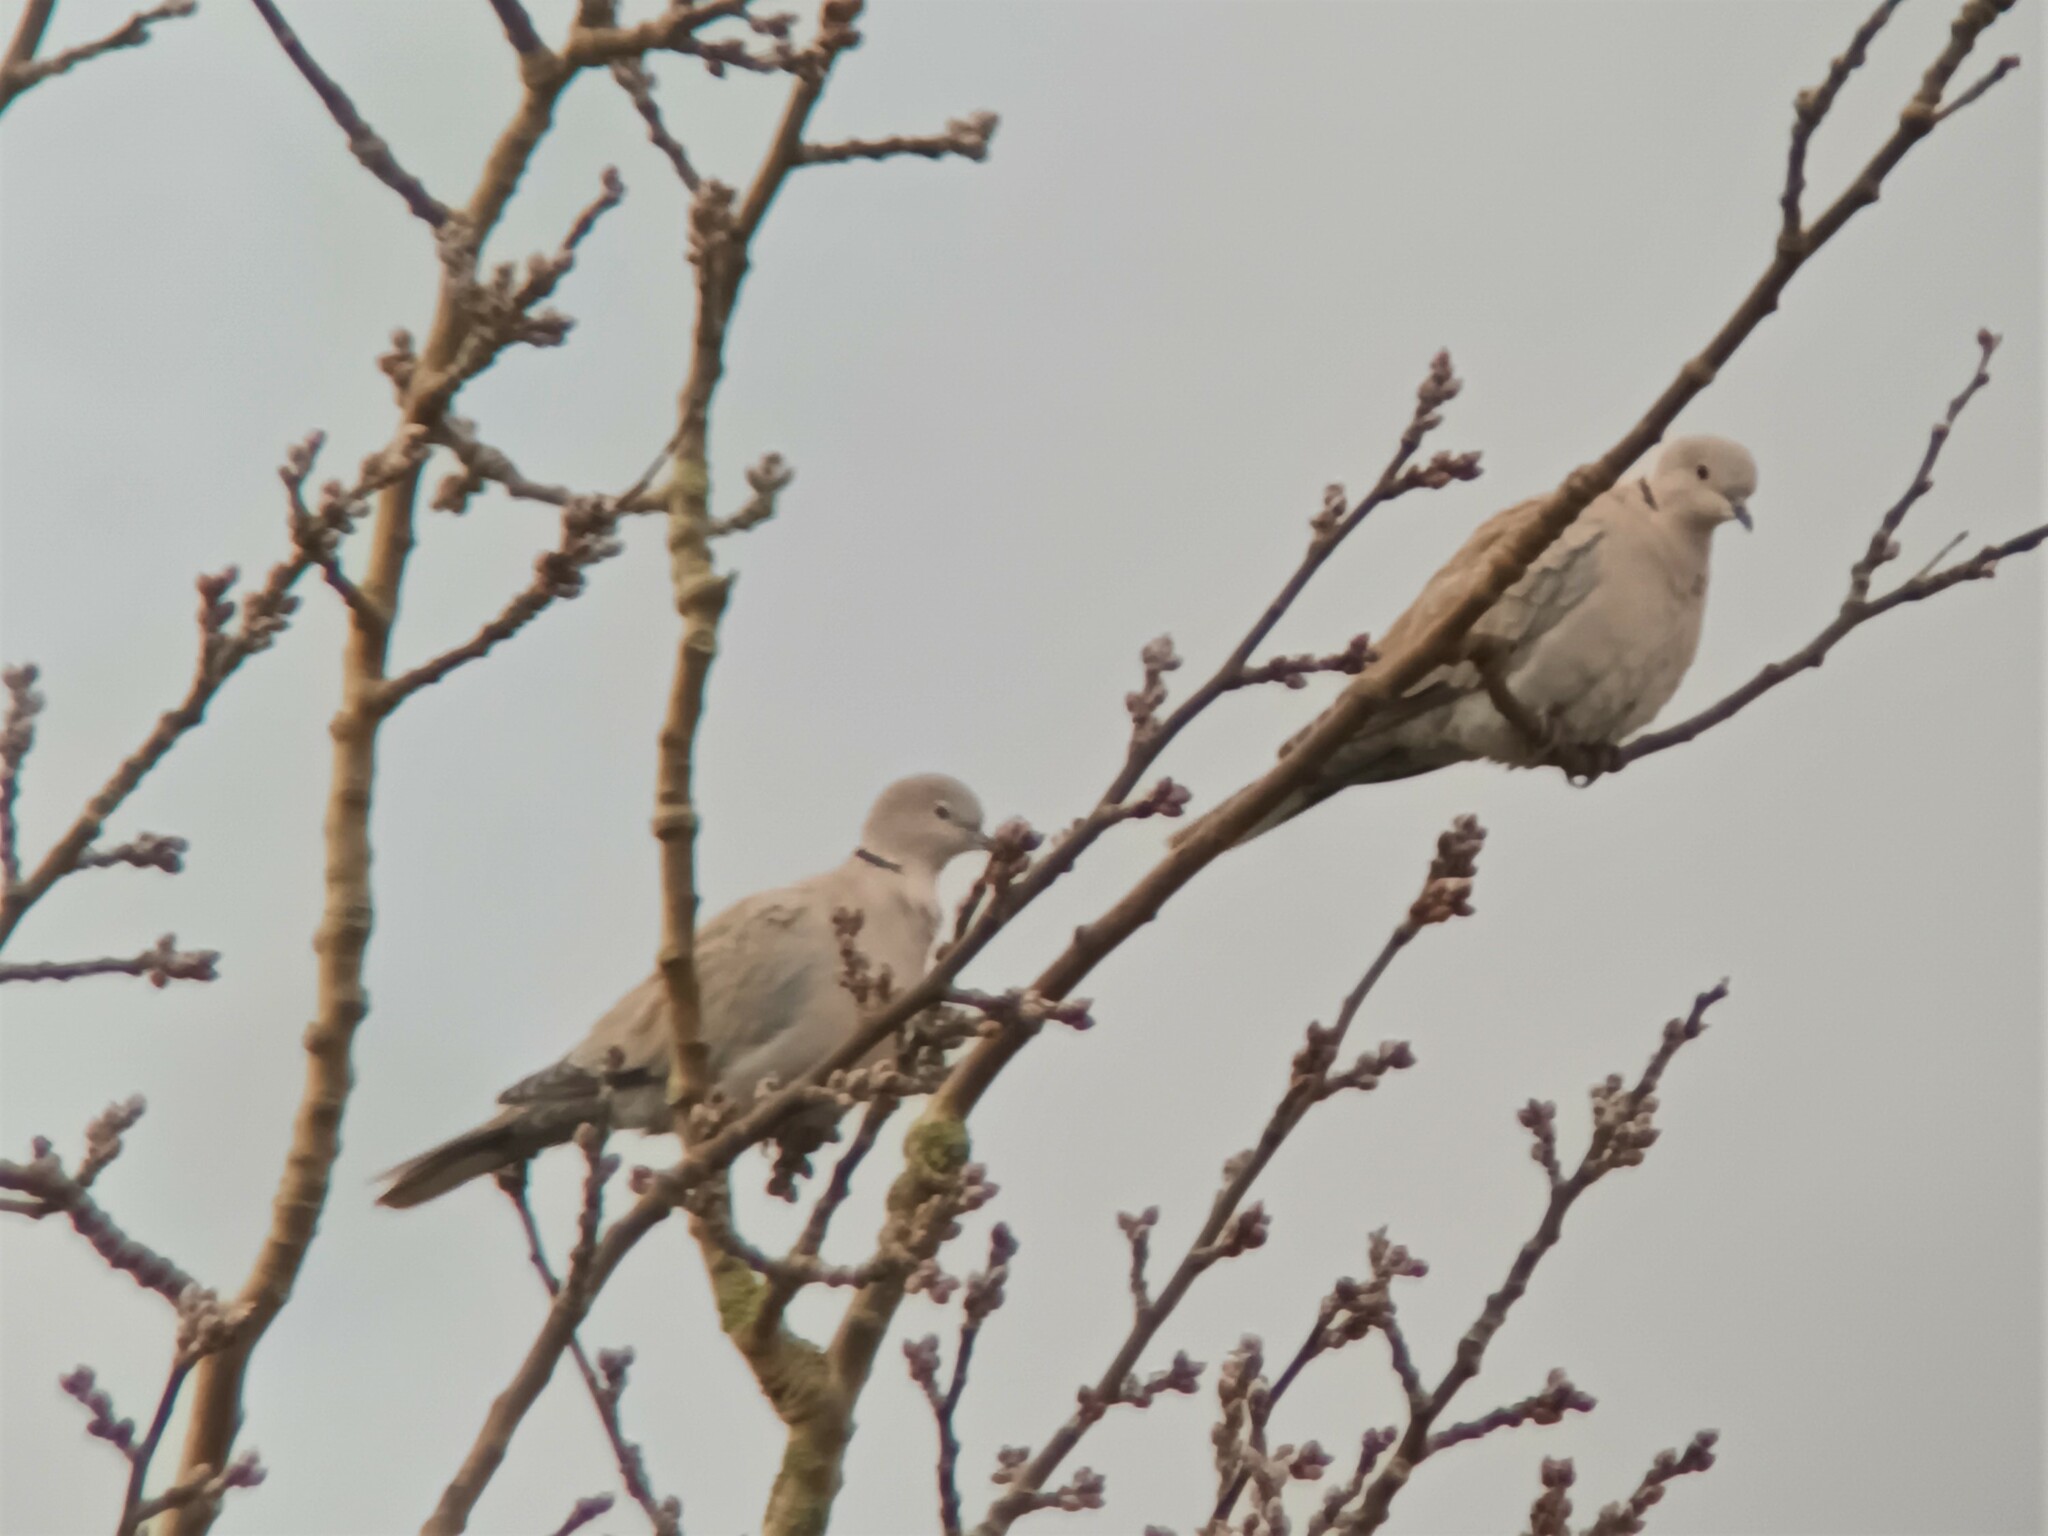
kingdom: Animalia
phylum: Chordata
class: Aves
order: Columbiformes
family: Columbidae
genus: Streptopelia
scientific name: Streptopelia decaocto
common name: Eurasian collared dove
